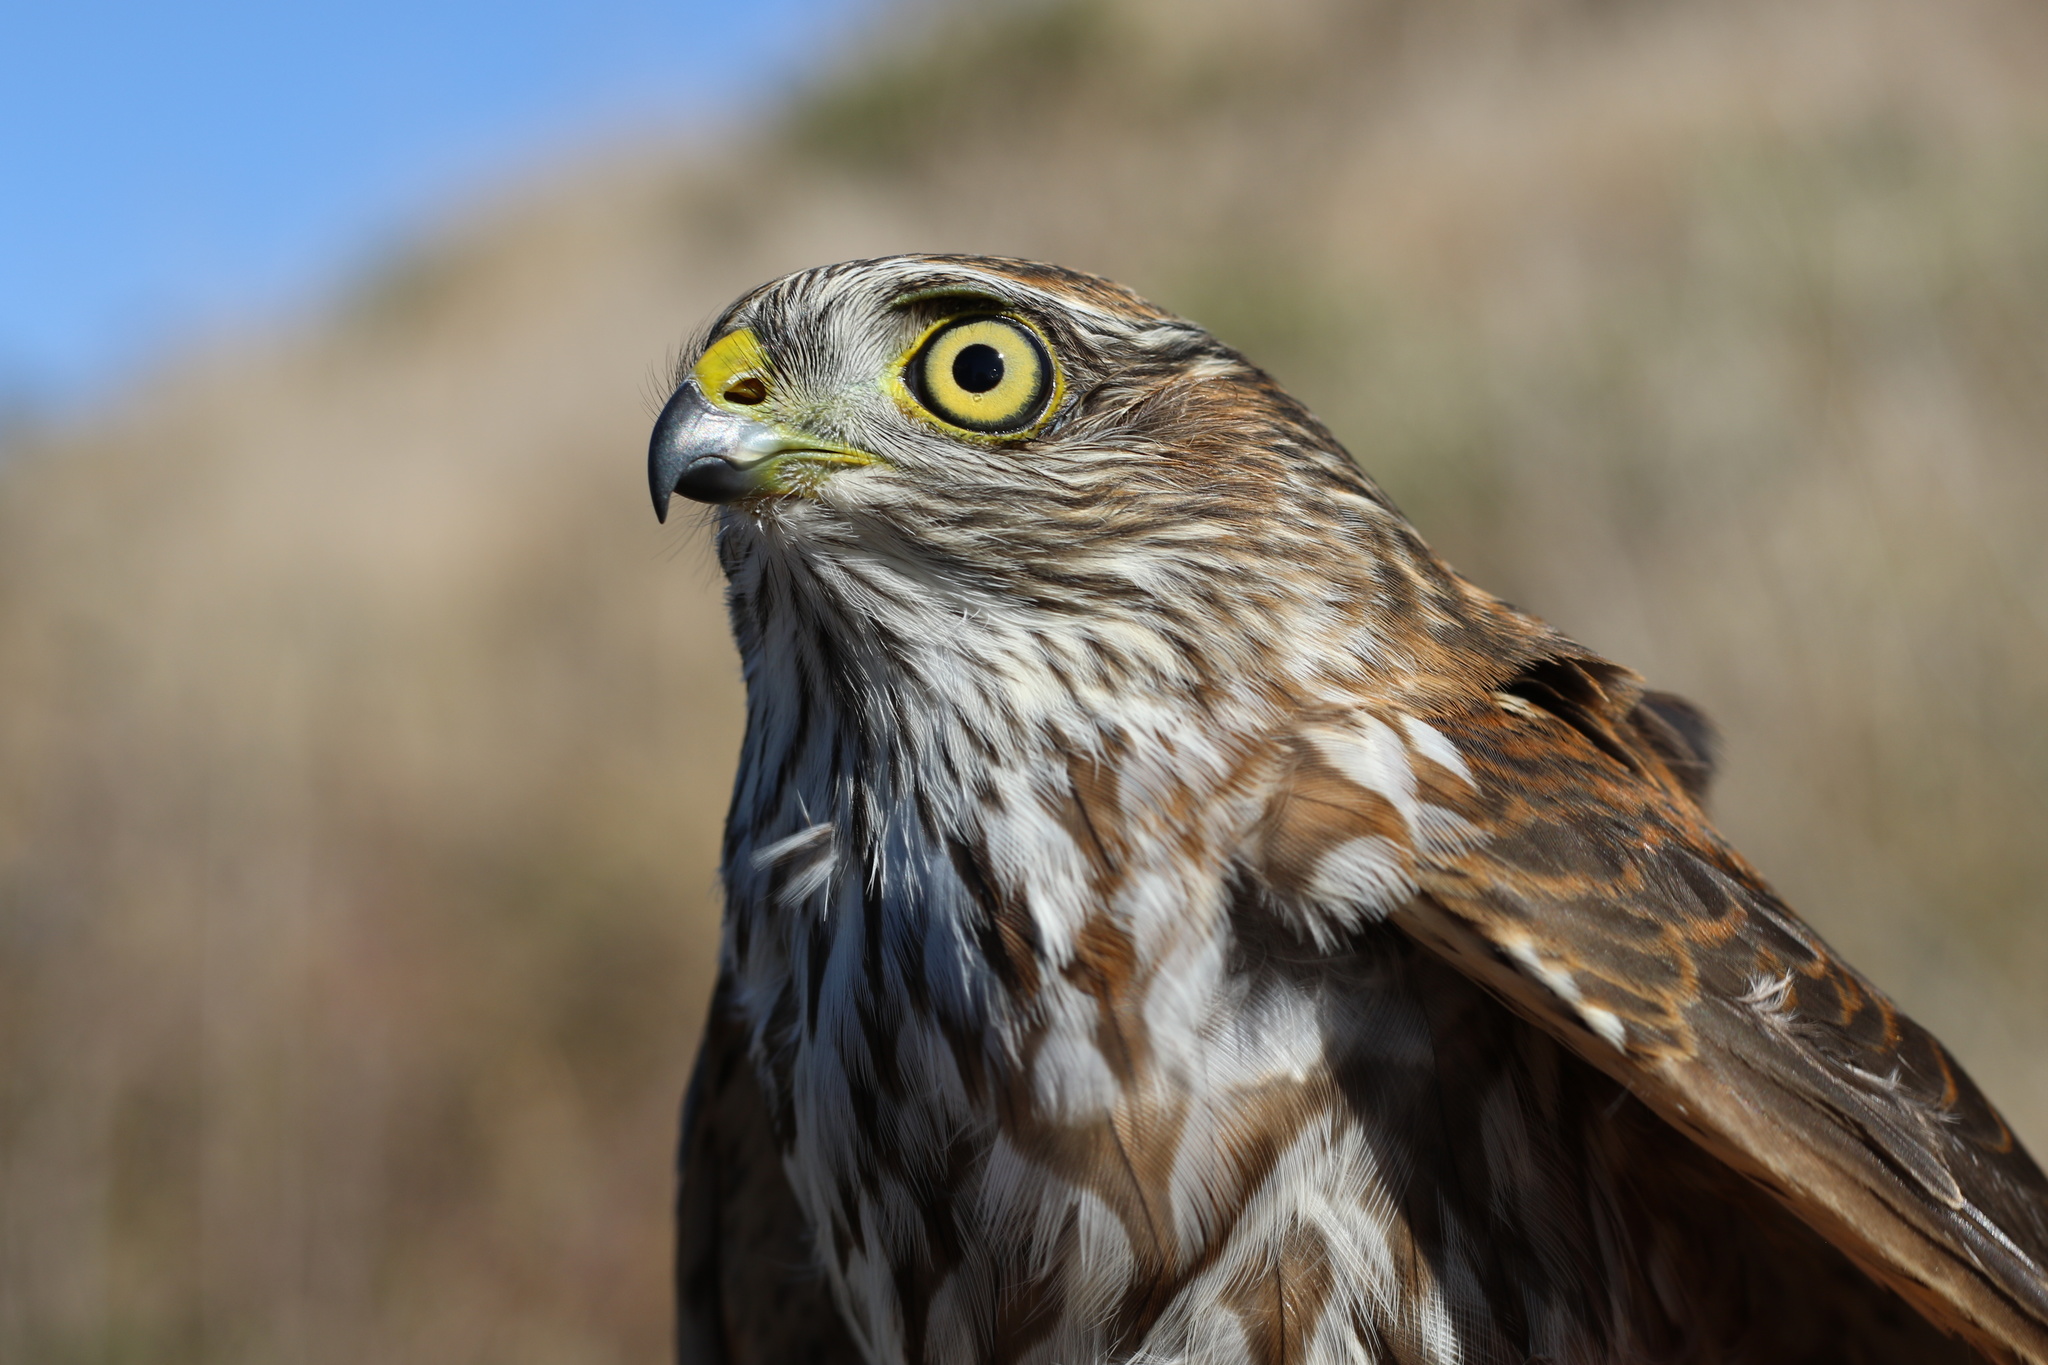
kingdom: Animalia
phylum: Chordata
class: Aves
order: Accipitriformes
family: Accipitridae
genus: Accipiter
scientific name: Accipiter striatus
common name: Sharp-shinned hawk
